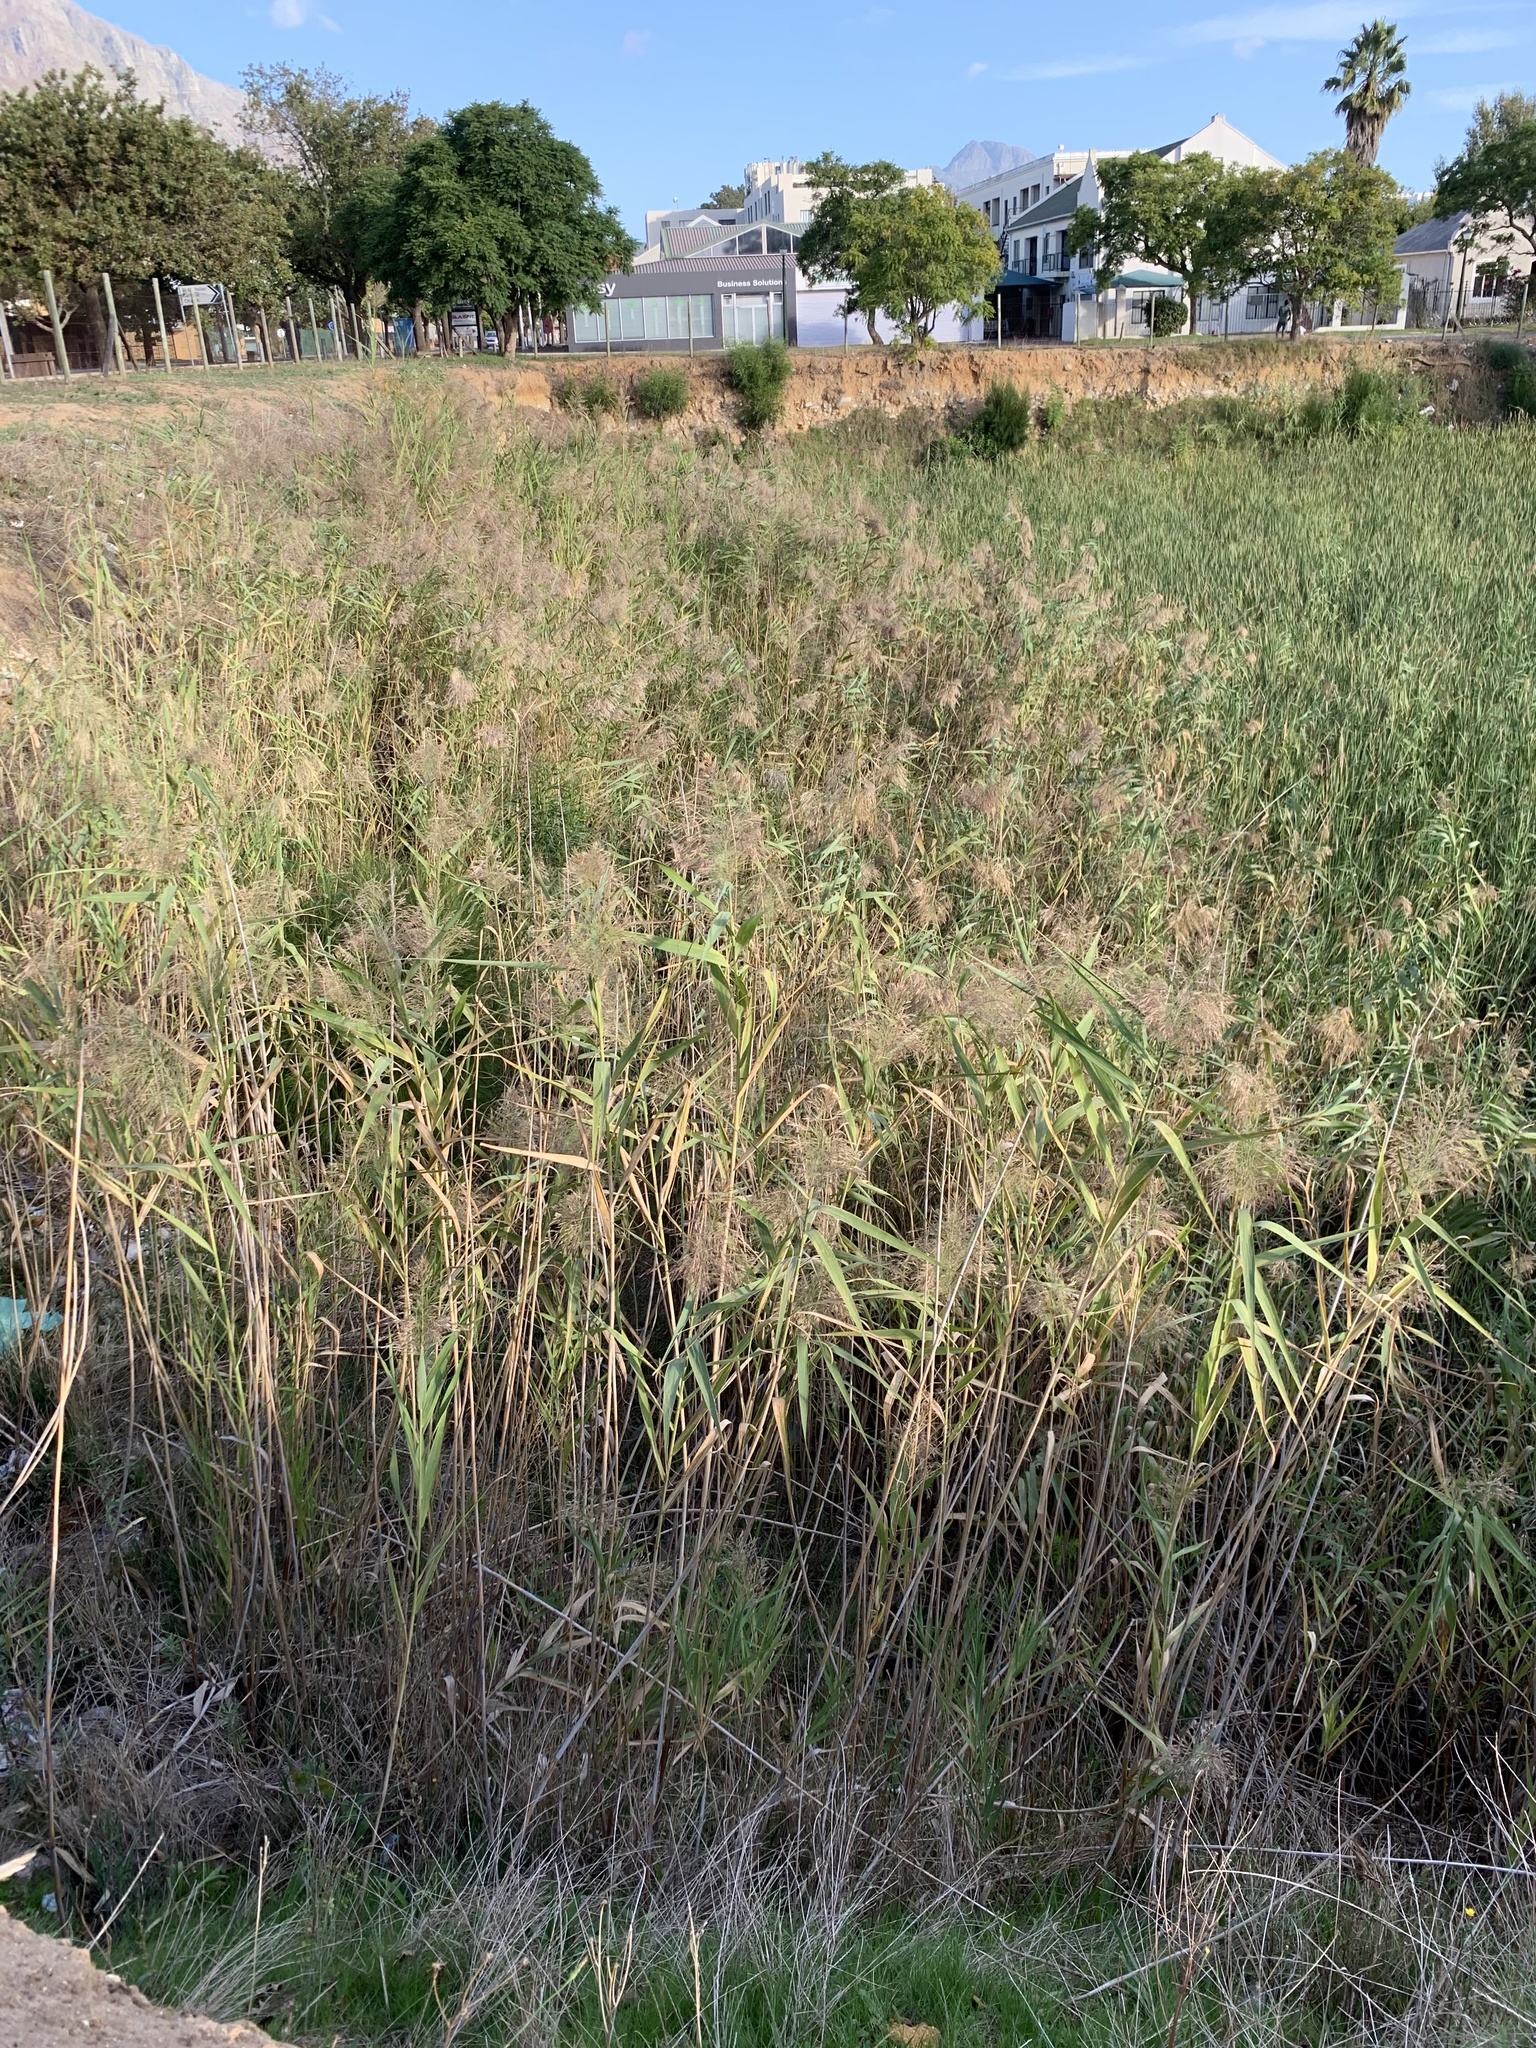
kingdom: Plantae
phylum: Tracheophyta
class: Liliopsida
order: Poales
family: Poaceae
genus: Phragmites
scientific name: Phragmites australis
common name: Common reed
